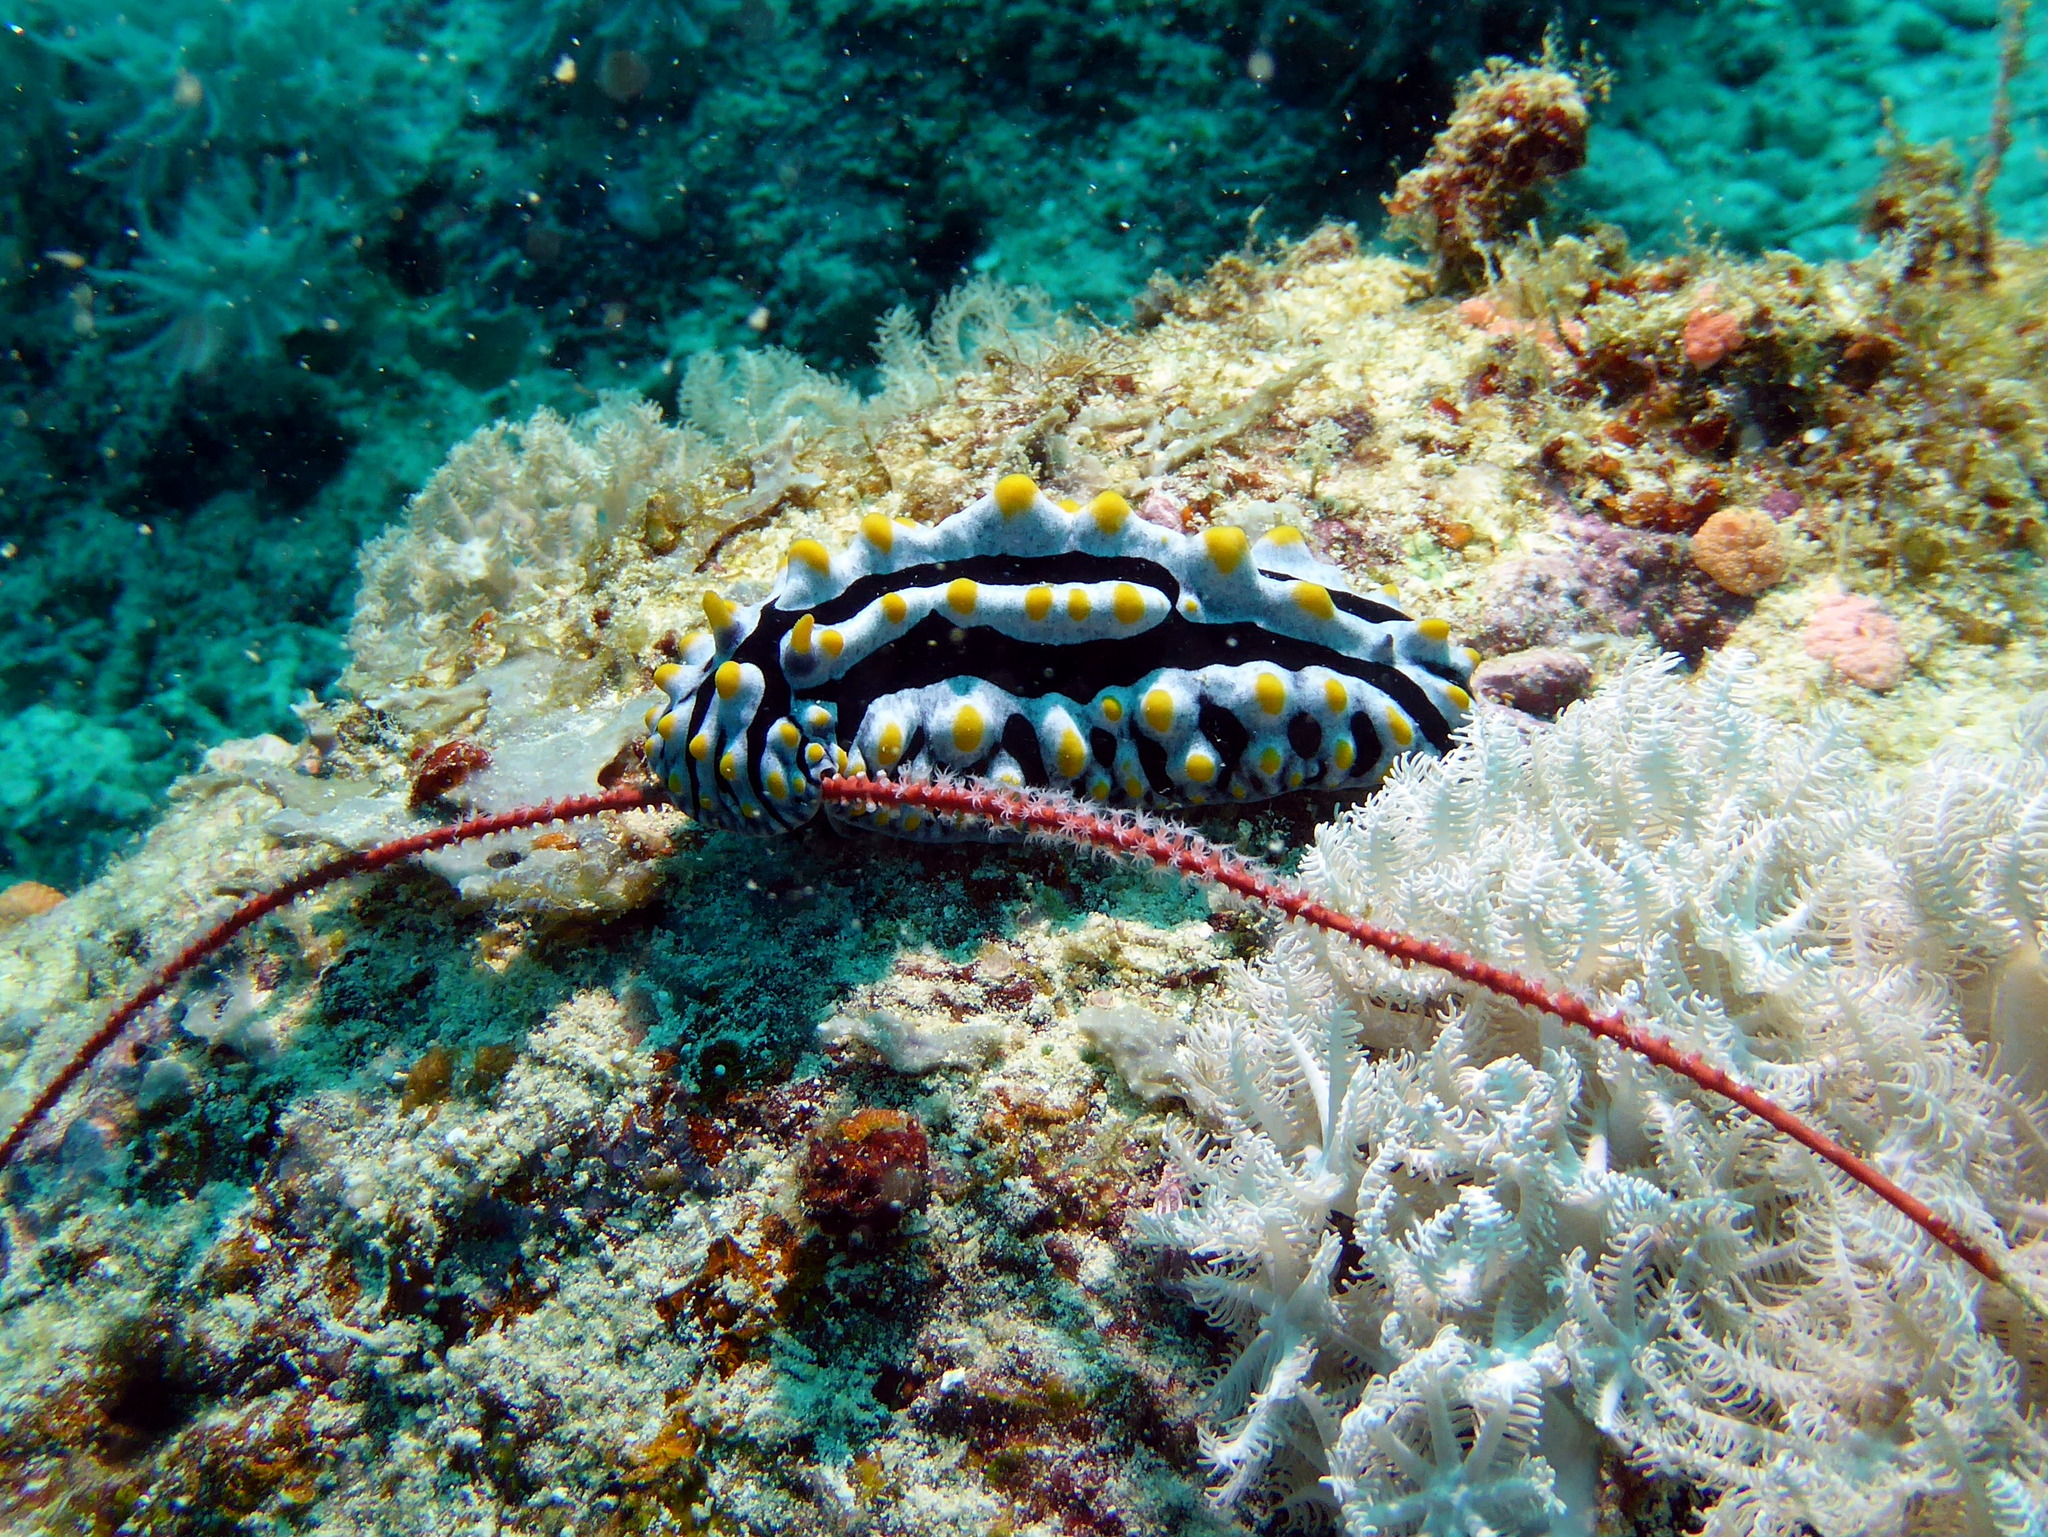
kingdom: Animalia
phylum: Mollusca
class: Gastropoda
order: Nudibranchia
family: Phyllidiidae
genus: Phyllidia
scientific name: Phyllidia varicosa
